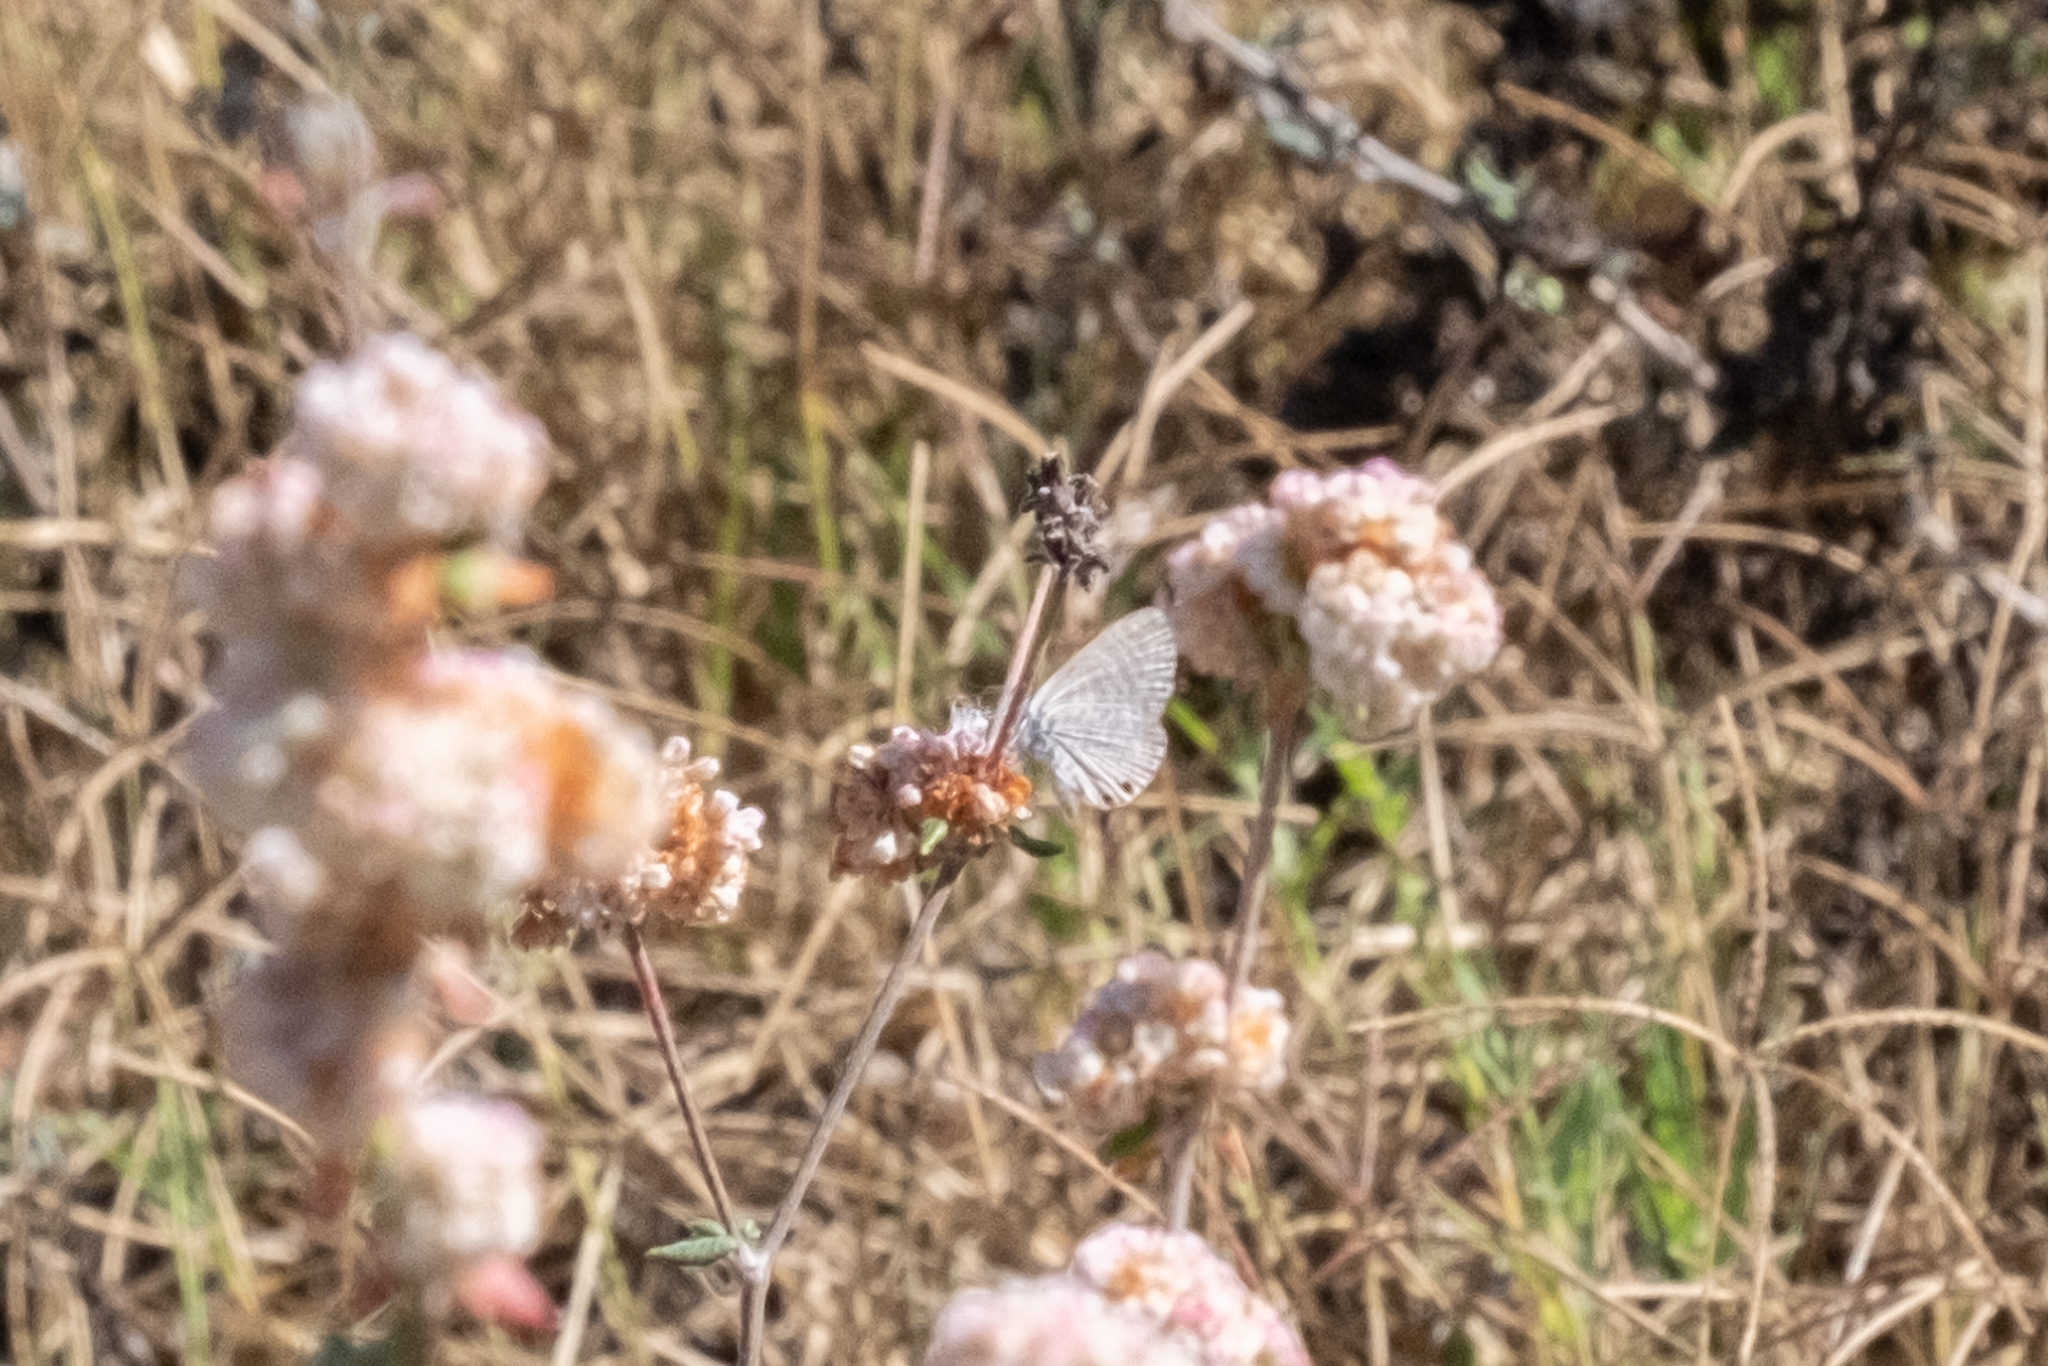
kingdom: Animalia
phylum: Arthropoda
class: Insecta
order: Lepidoptera
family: Lycaenidae
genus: Leptotes
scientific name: Leptotes marina
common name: Marine blue
